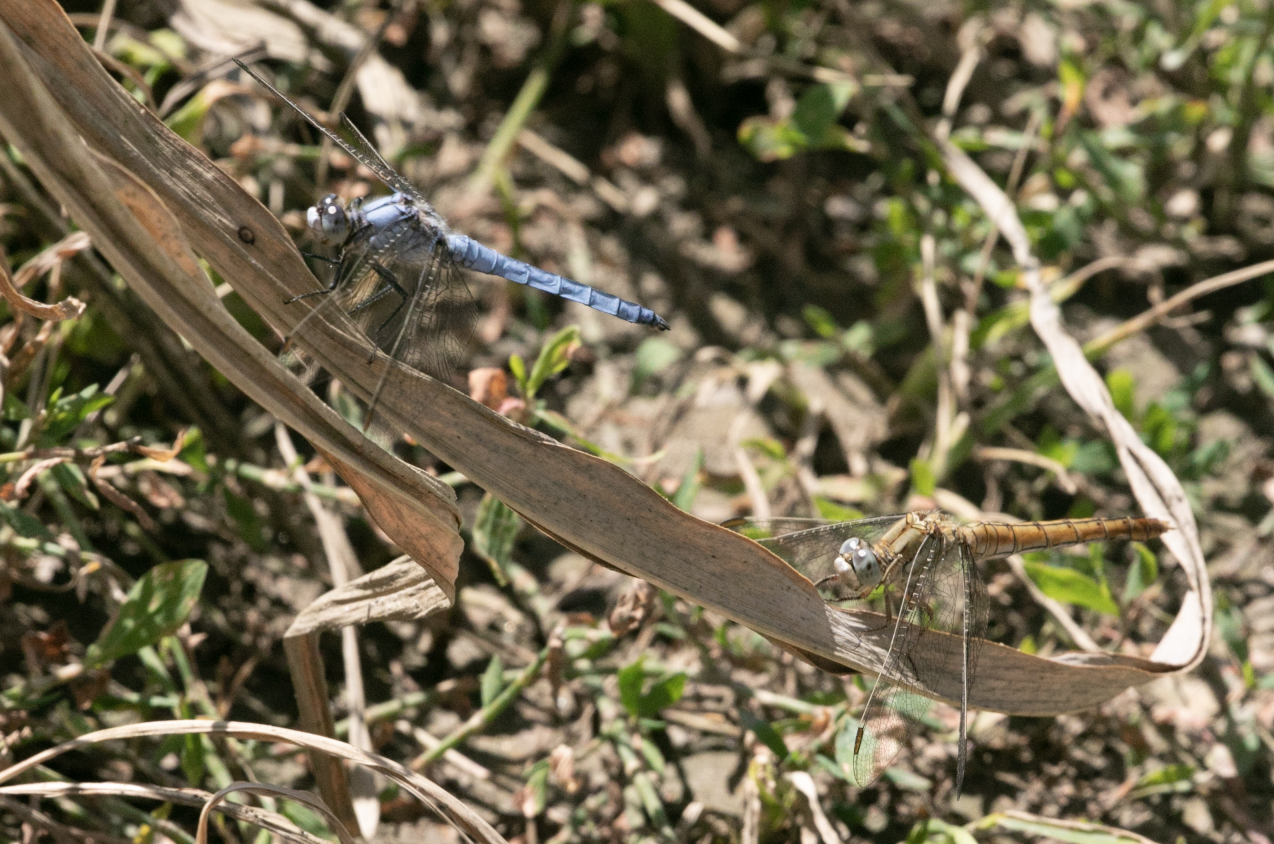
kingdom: Animalia
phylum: Arthropoda
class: Insecta
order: Odonata
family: Libellulidae
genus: Orthetrum
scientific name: Orthetrum brunneum
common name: Southern skimmer
